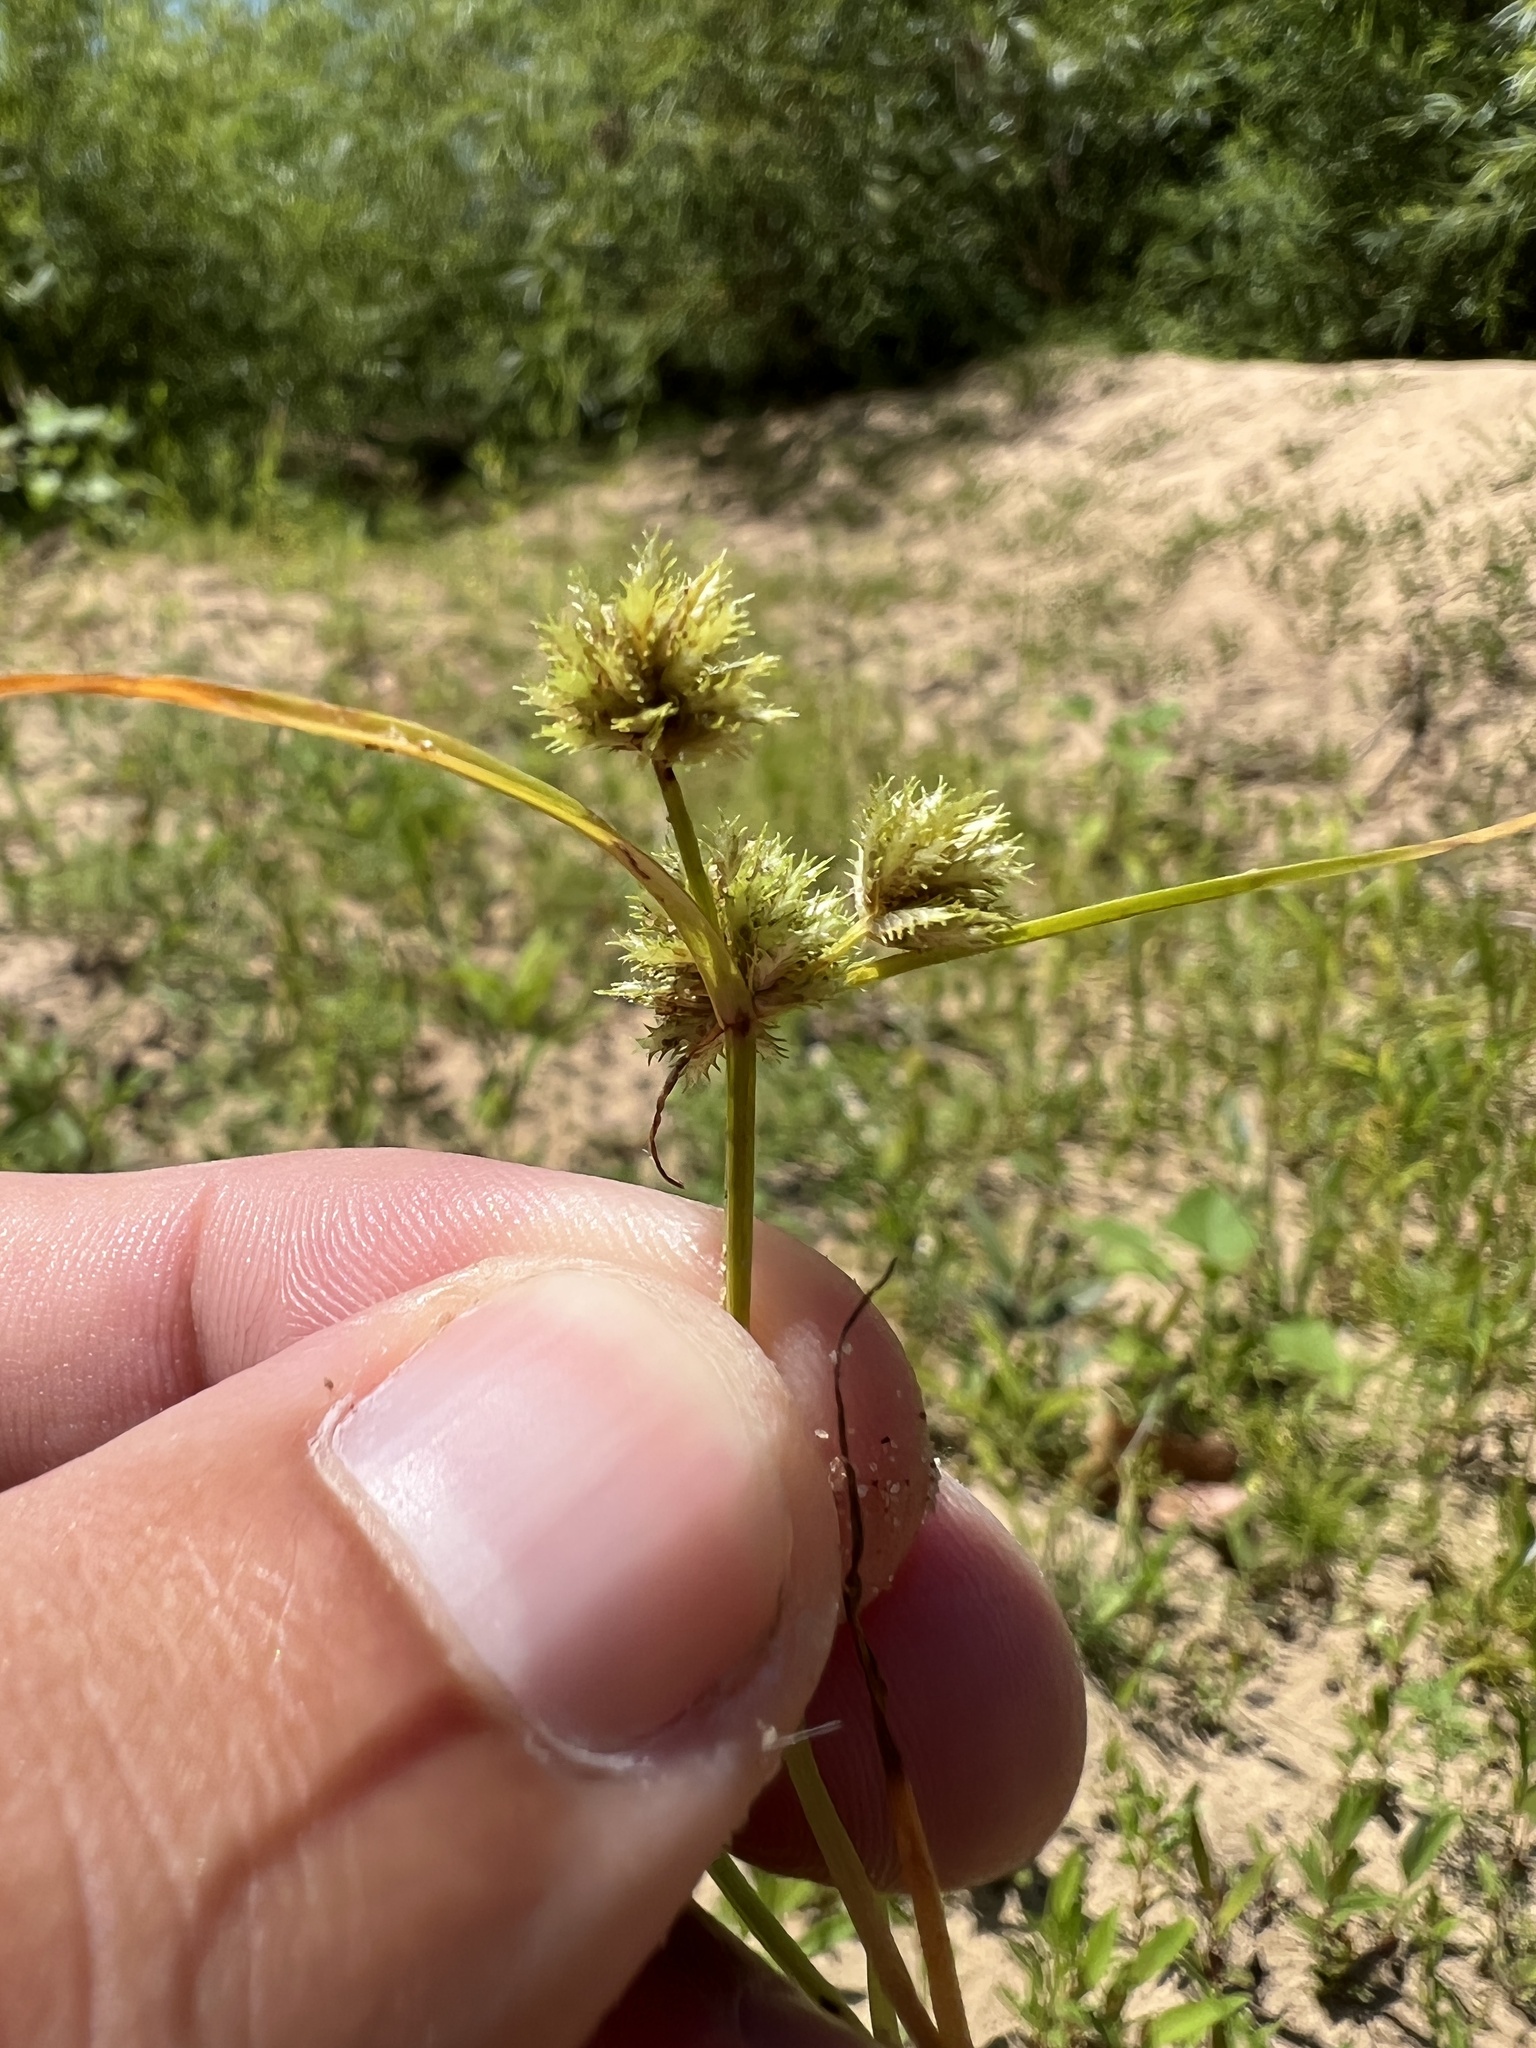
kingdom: Plantae
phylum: Tracheophyta
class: Liliopsida
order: Poales
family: Cyperaceae
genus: Cyperus
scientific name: Cyperus squarrosus
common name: Awned cyperus
